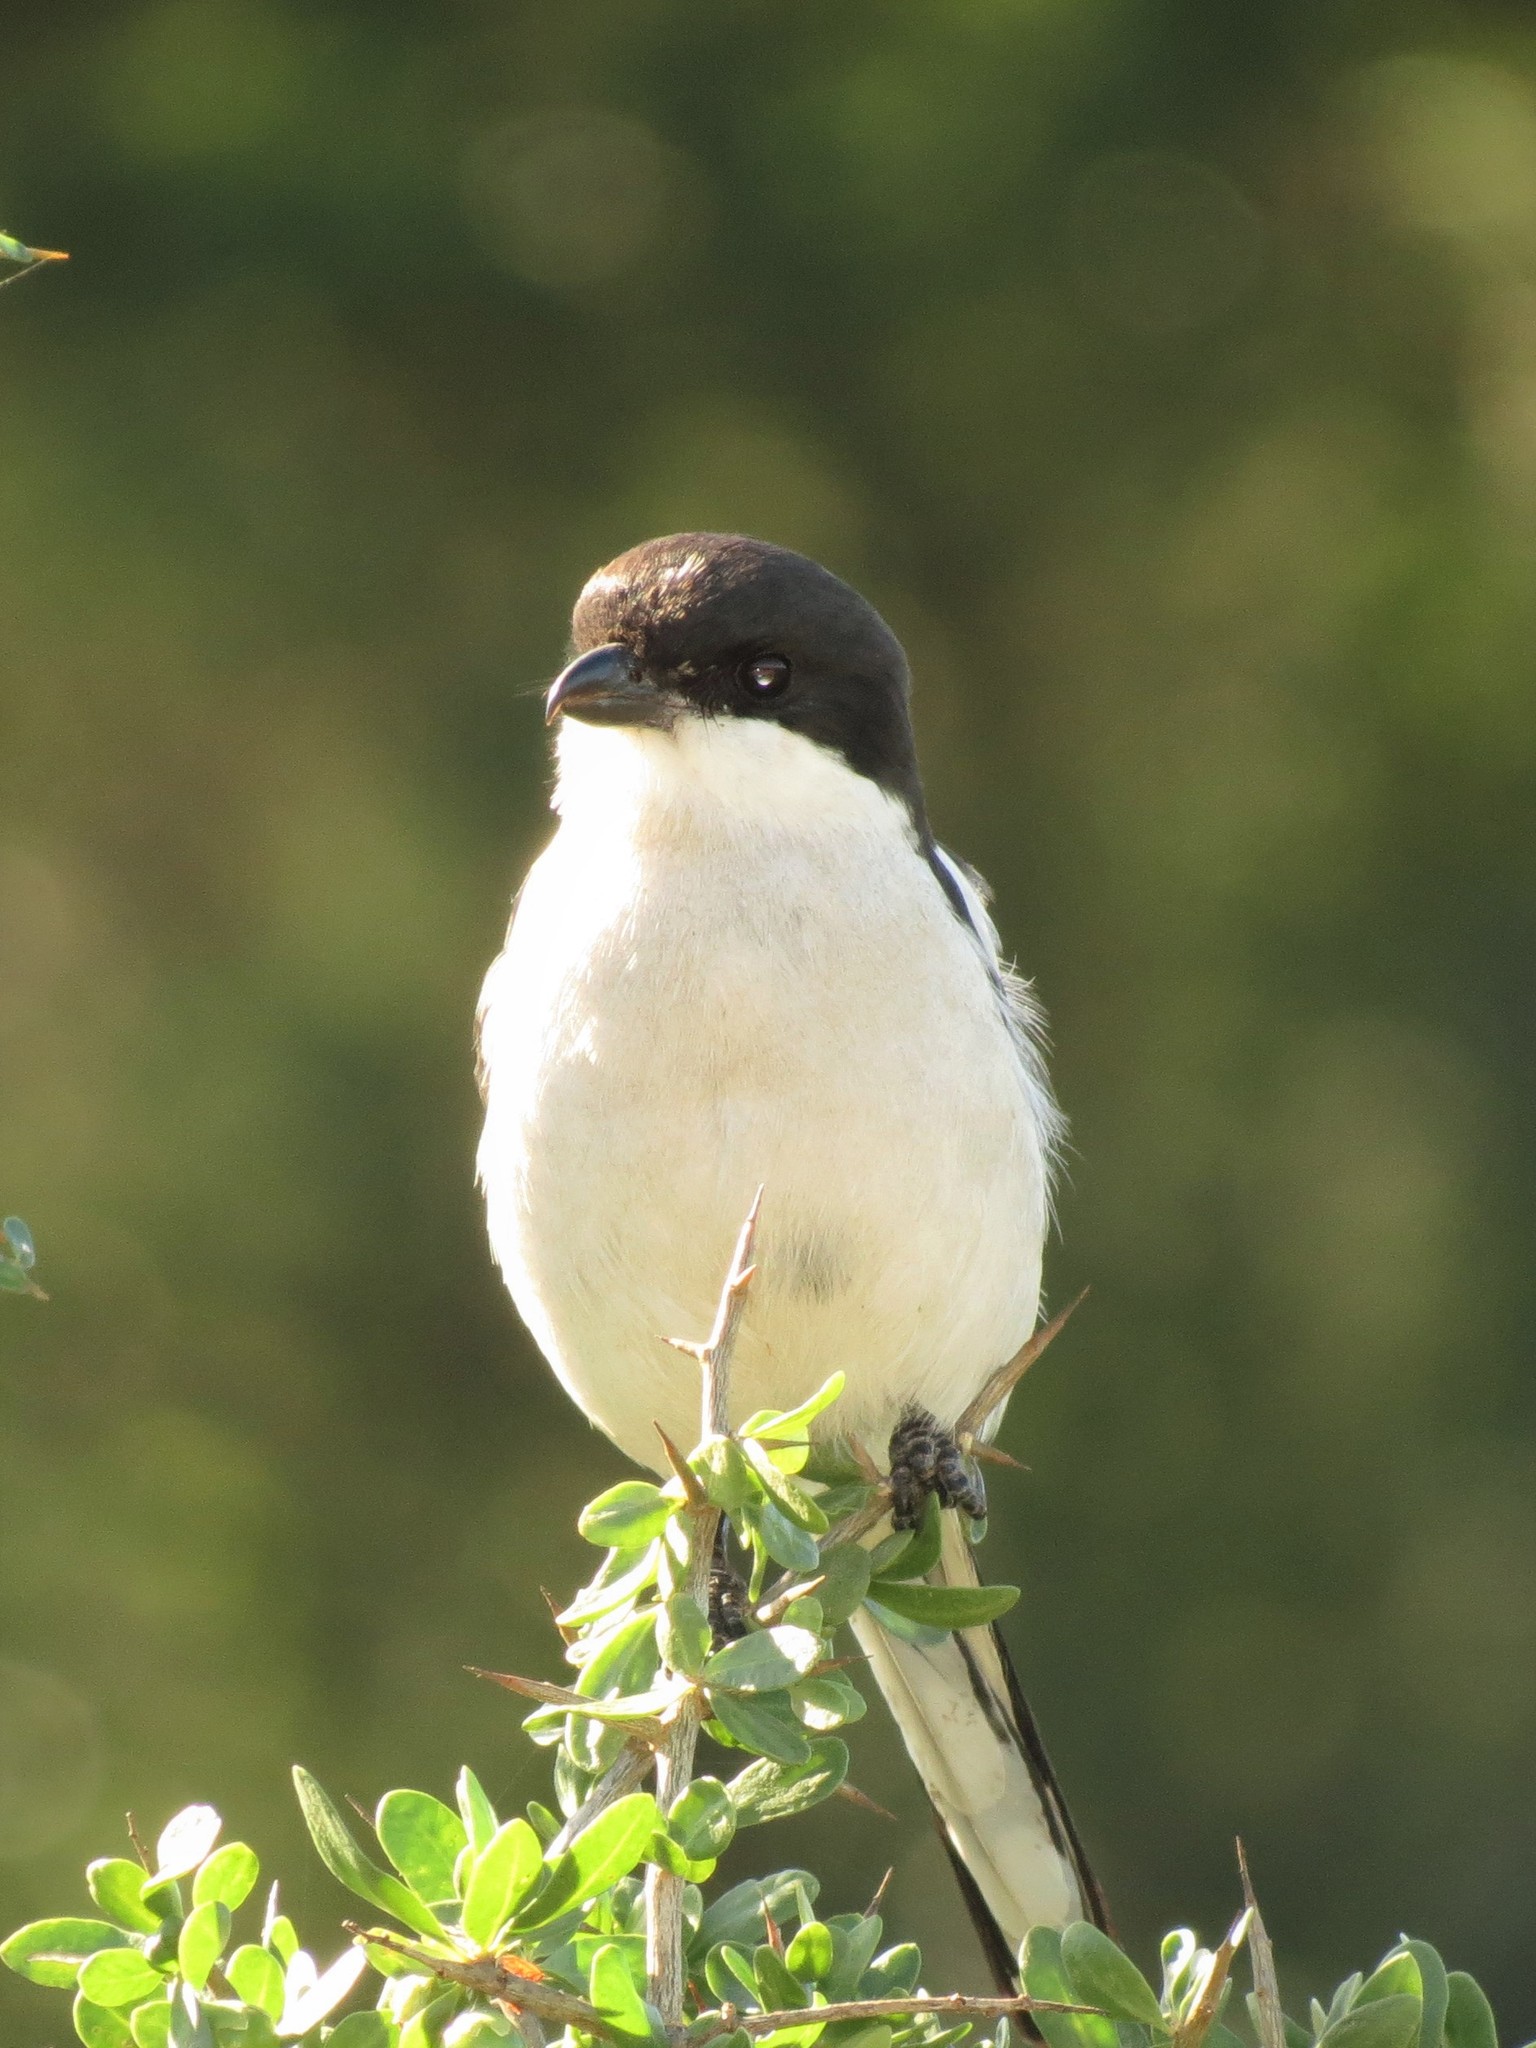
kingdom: Animalia
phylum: Chordata
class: Aves
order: Passeriformes
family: Laniidae
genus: Lanius
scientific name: Lanius collaris
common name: Southern fiscal
